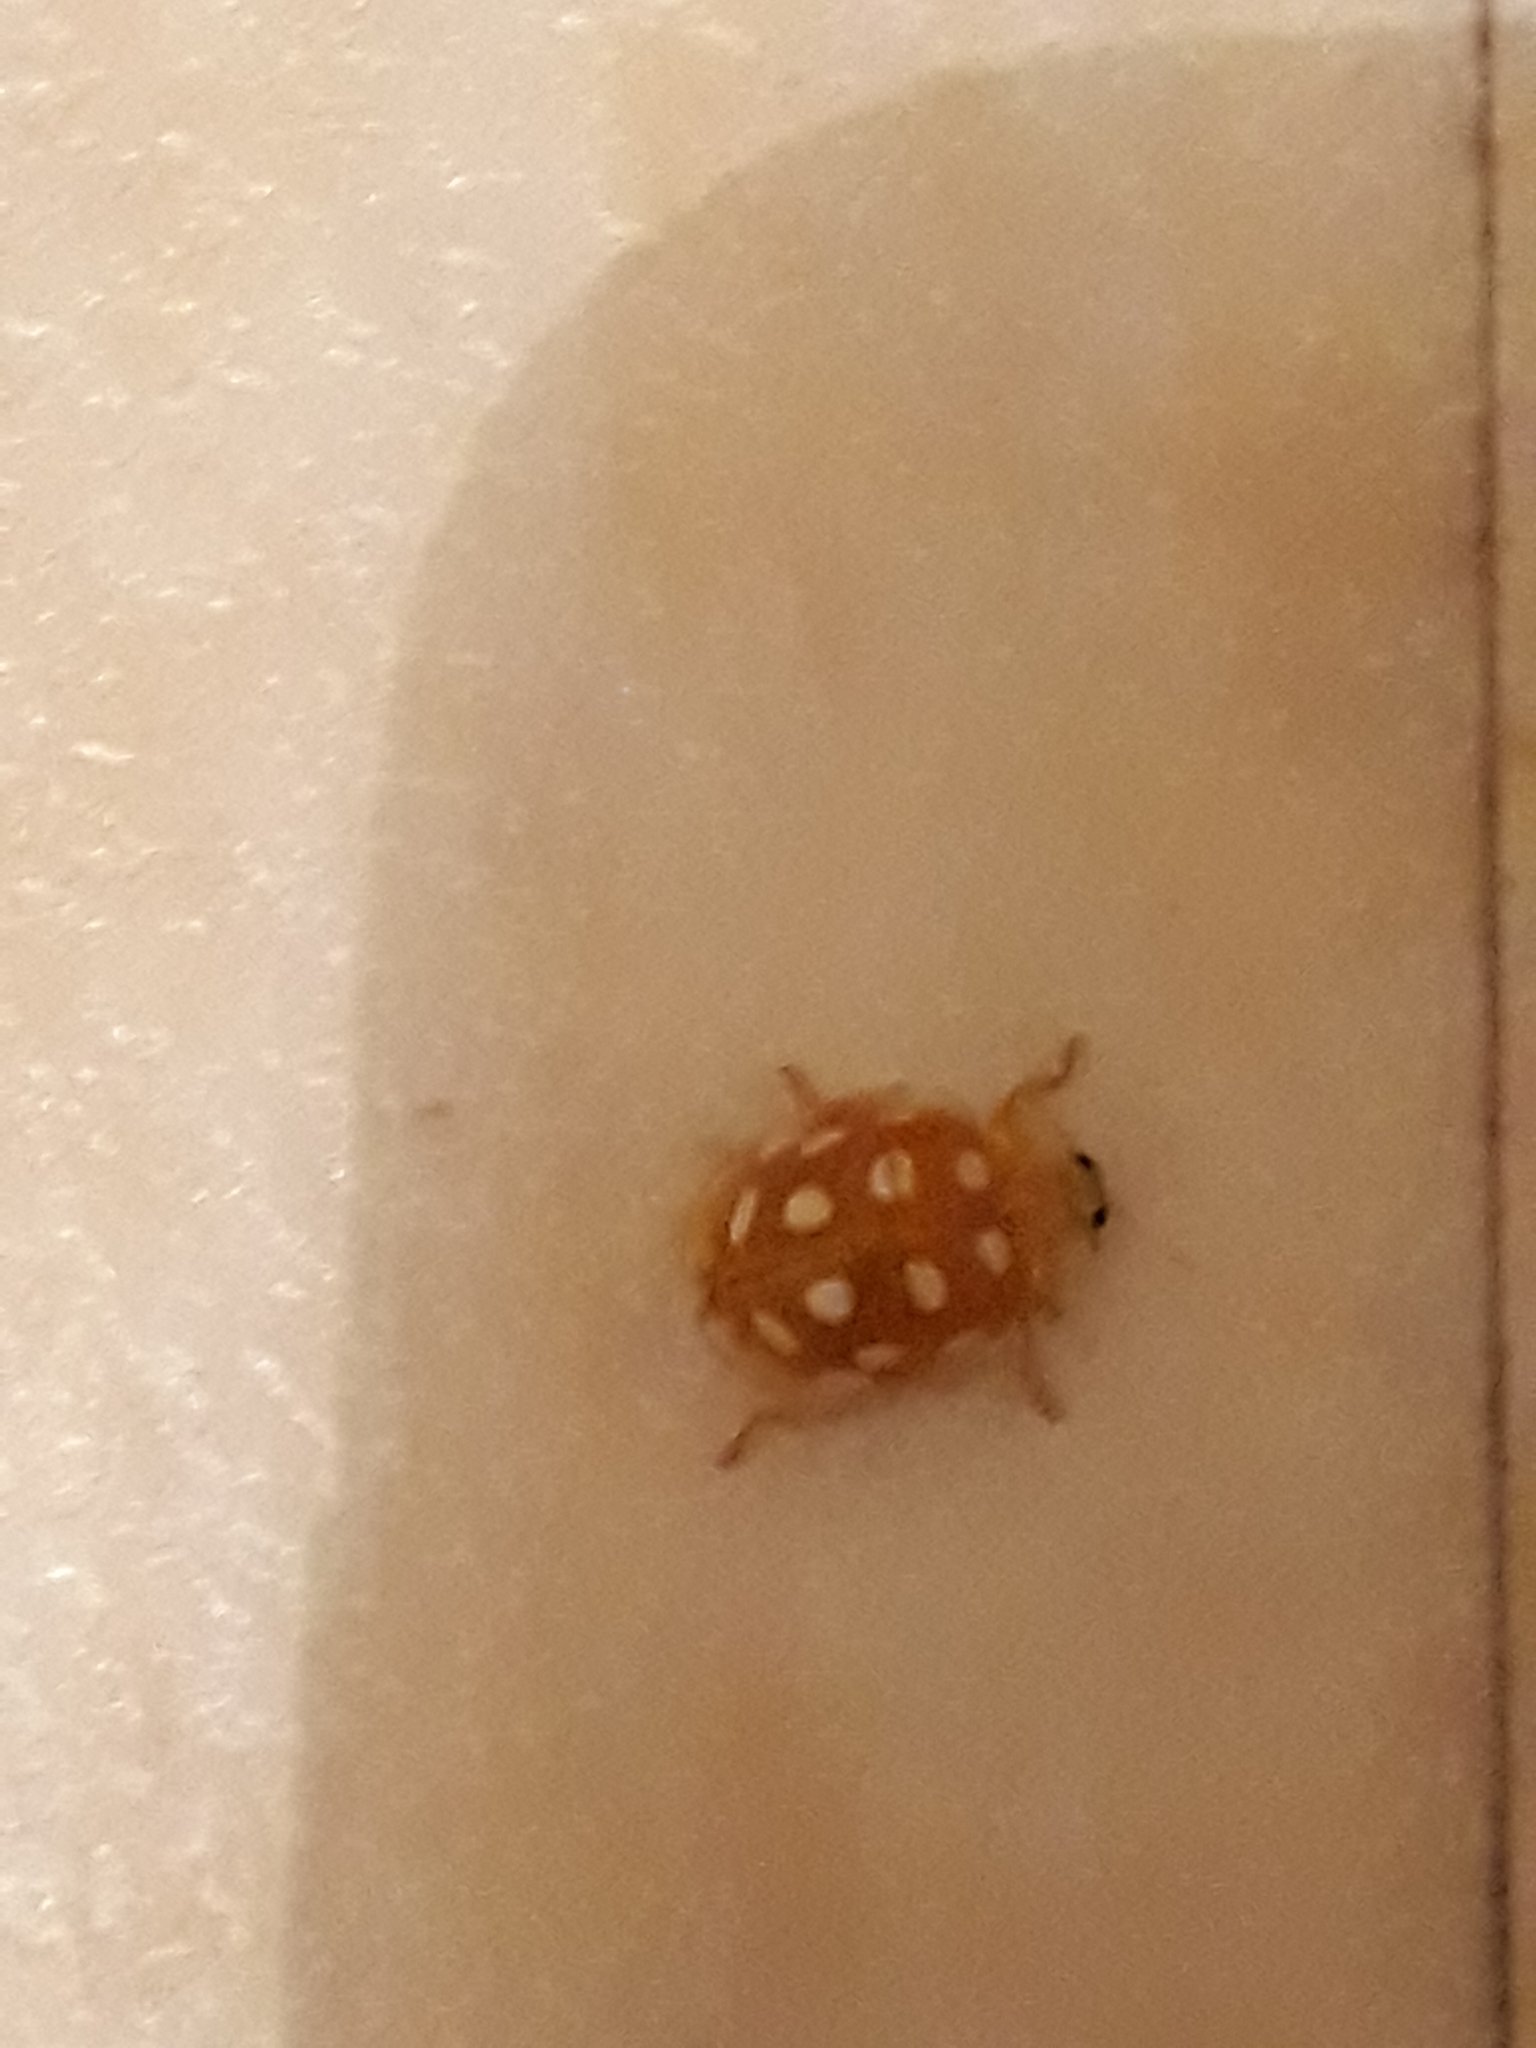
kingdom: Animalia
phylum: Arthropoda
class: Insecta
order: Coleoptera
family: Coccinellidae
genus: Halyzia
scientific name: Halyzia sedecimguttata
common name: Orange ladybird
